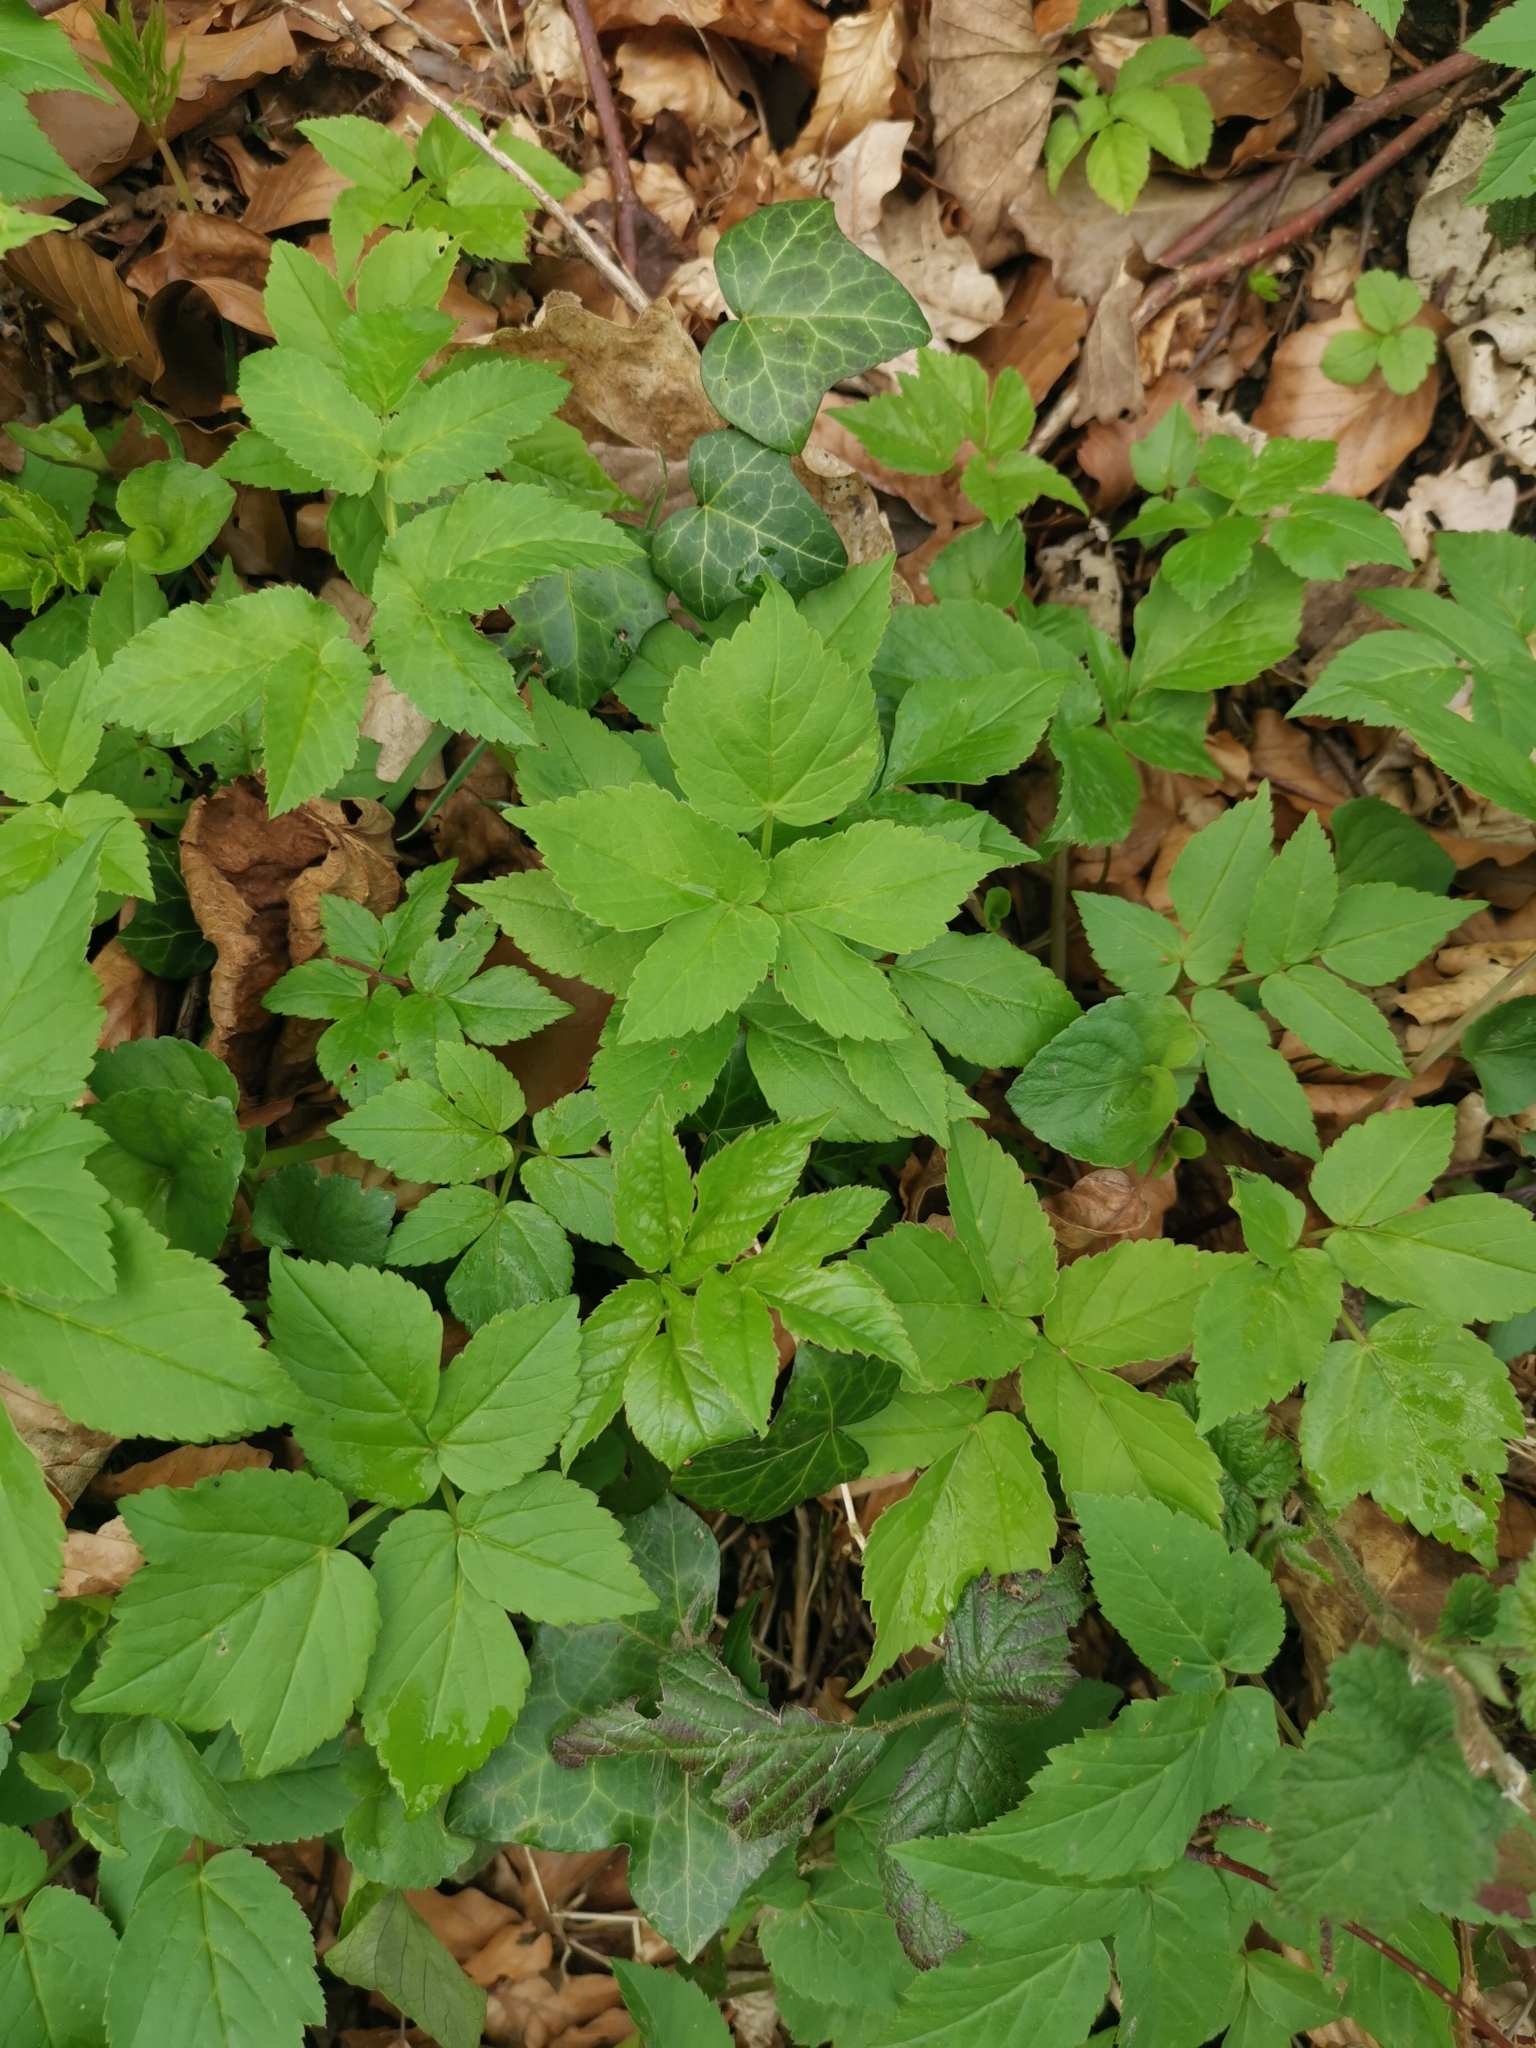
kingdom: Plantae
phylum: Tracheophyta
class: Magnoliopsida
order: Apiales
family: Apiaceae
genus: Aegopodium
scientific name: Aegopodium podagraria
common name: Ground-elder
